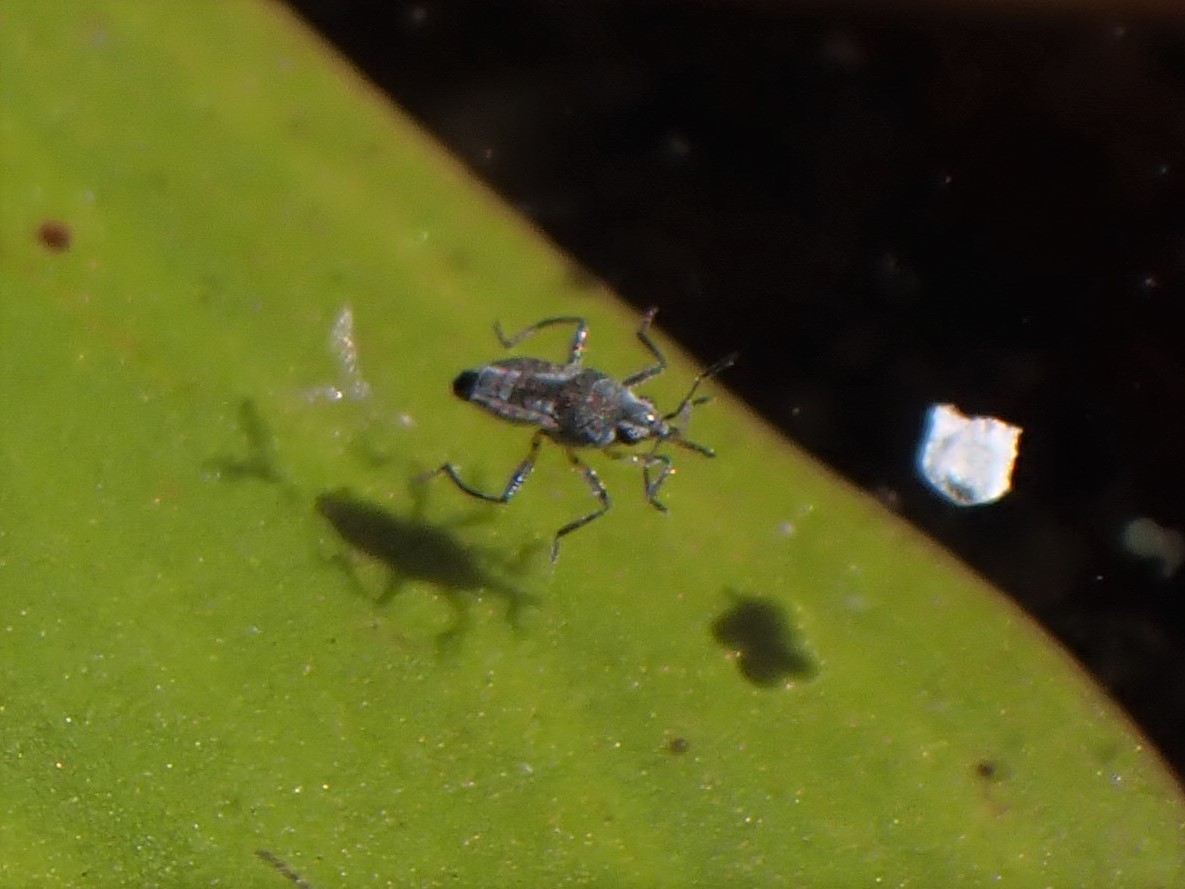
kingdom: Animalia
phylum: Arthropoda
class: Insecta
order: Hemiptera
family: Veliidae
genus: Microvelia
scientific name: Microvelia pulchella
